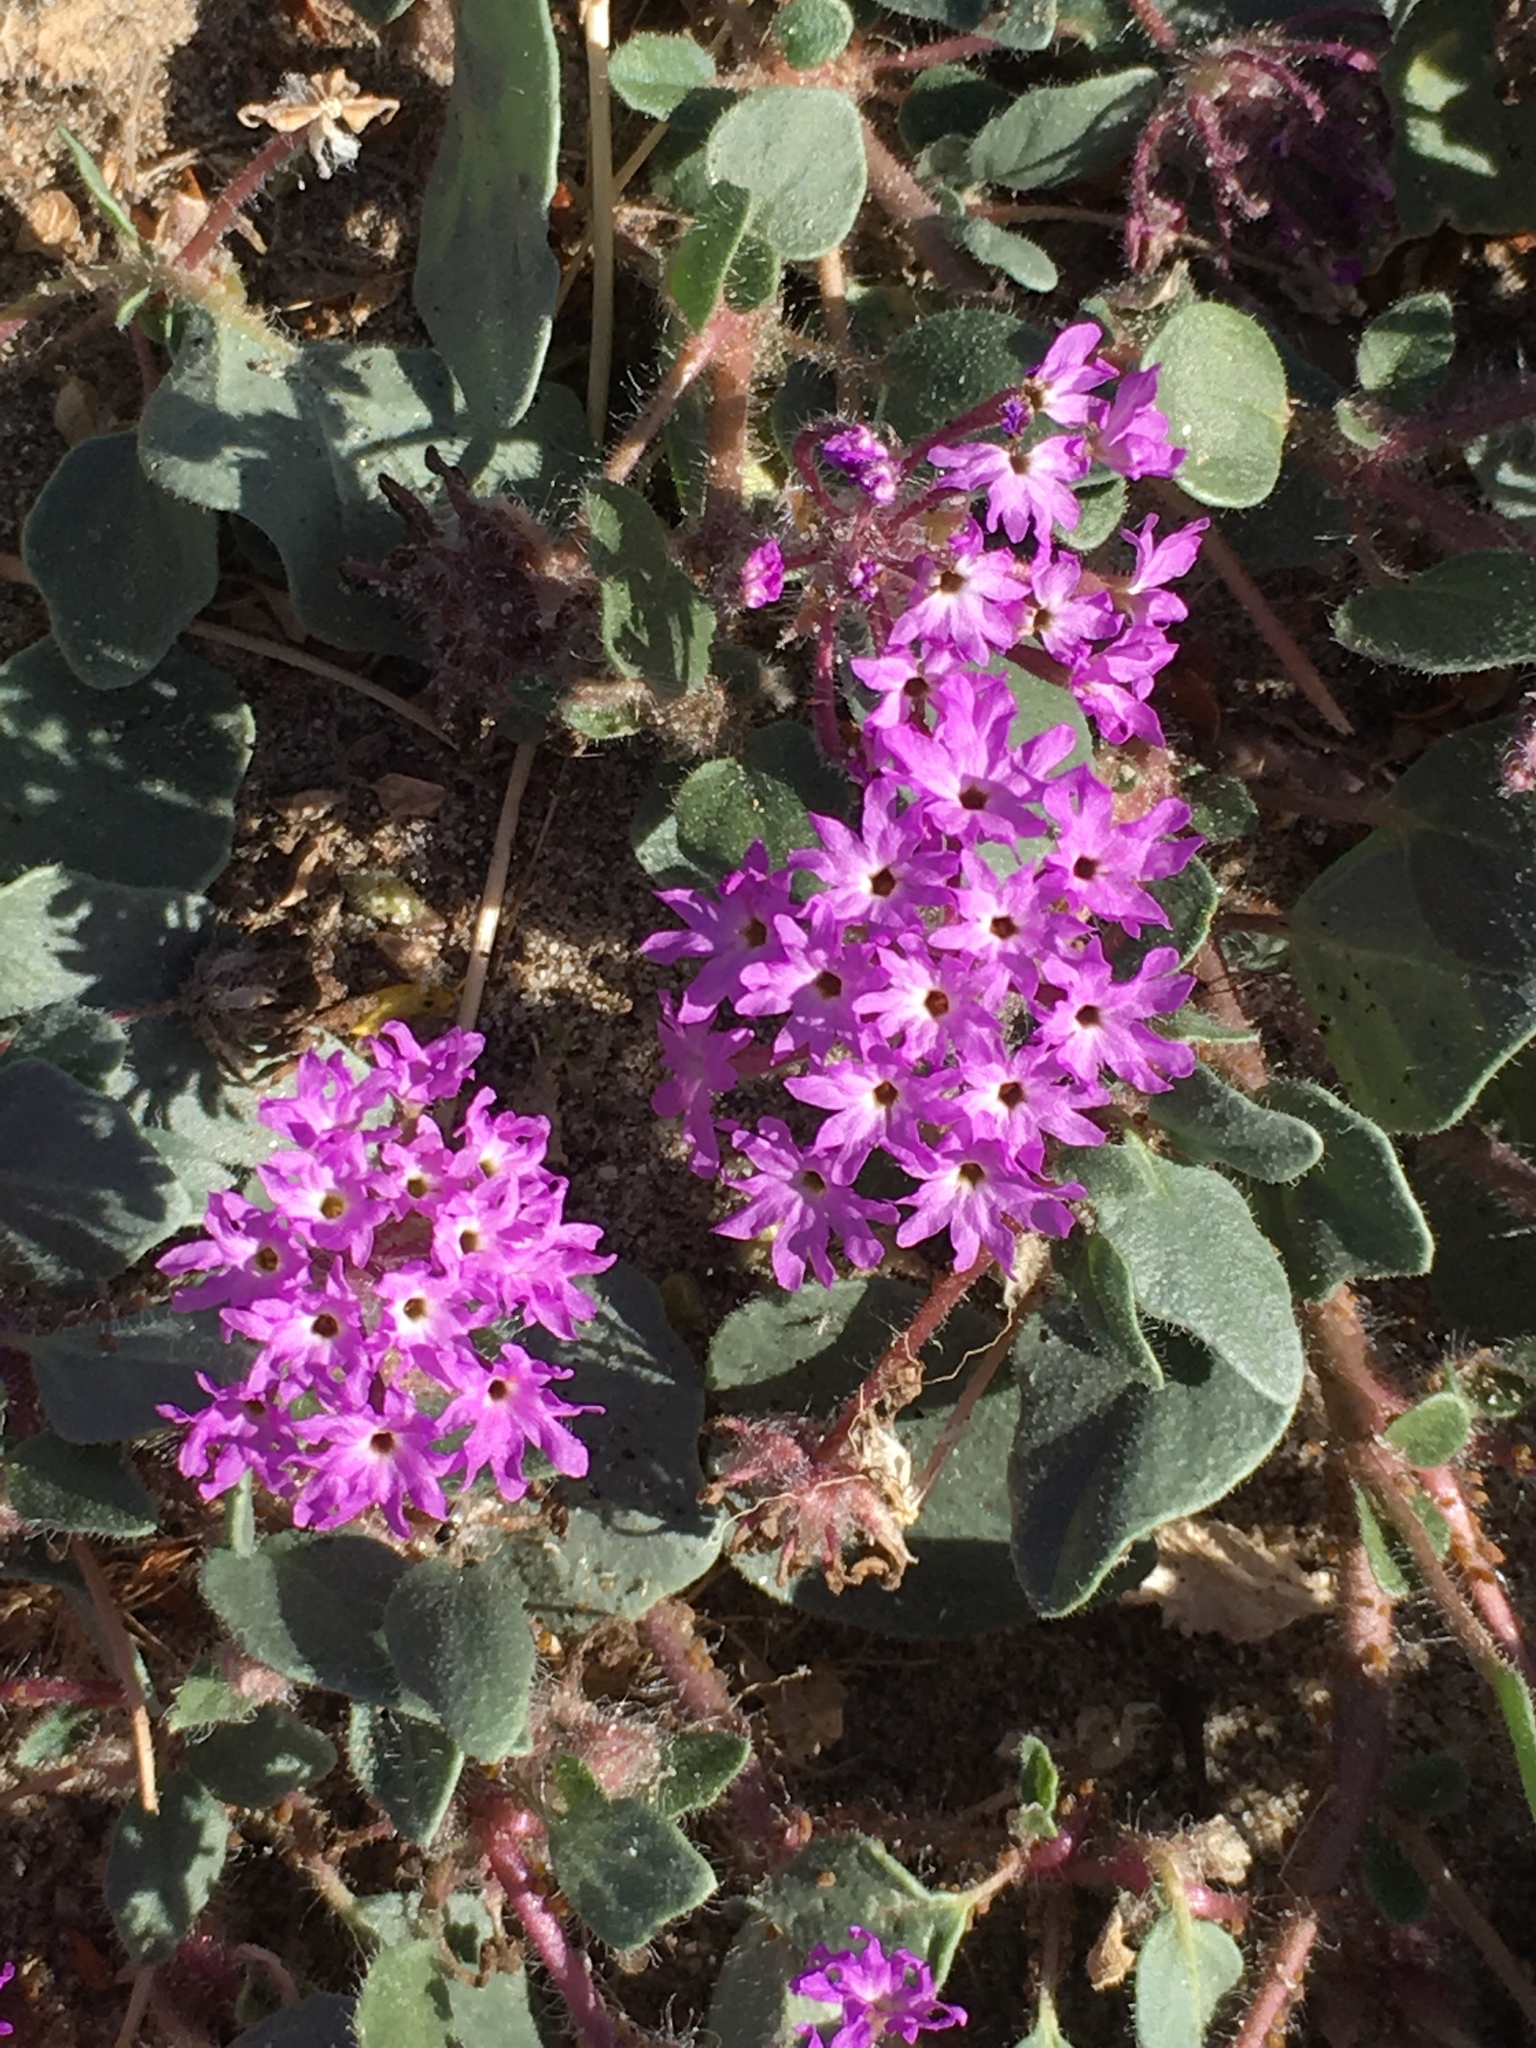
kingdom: Plantae
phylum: Tracheophyta
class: Magnoliopsida
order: Caryophyllales
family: Nyctaginaceae
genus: Abronia
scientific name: Abronia villosa
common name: Desert sand-verbena
